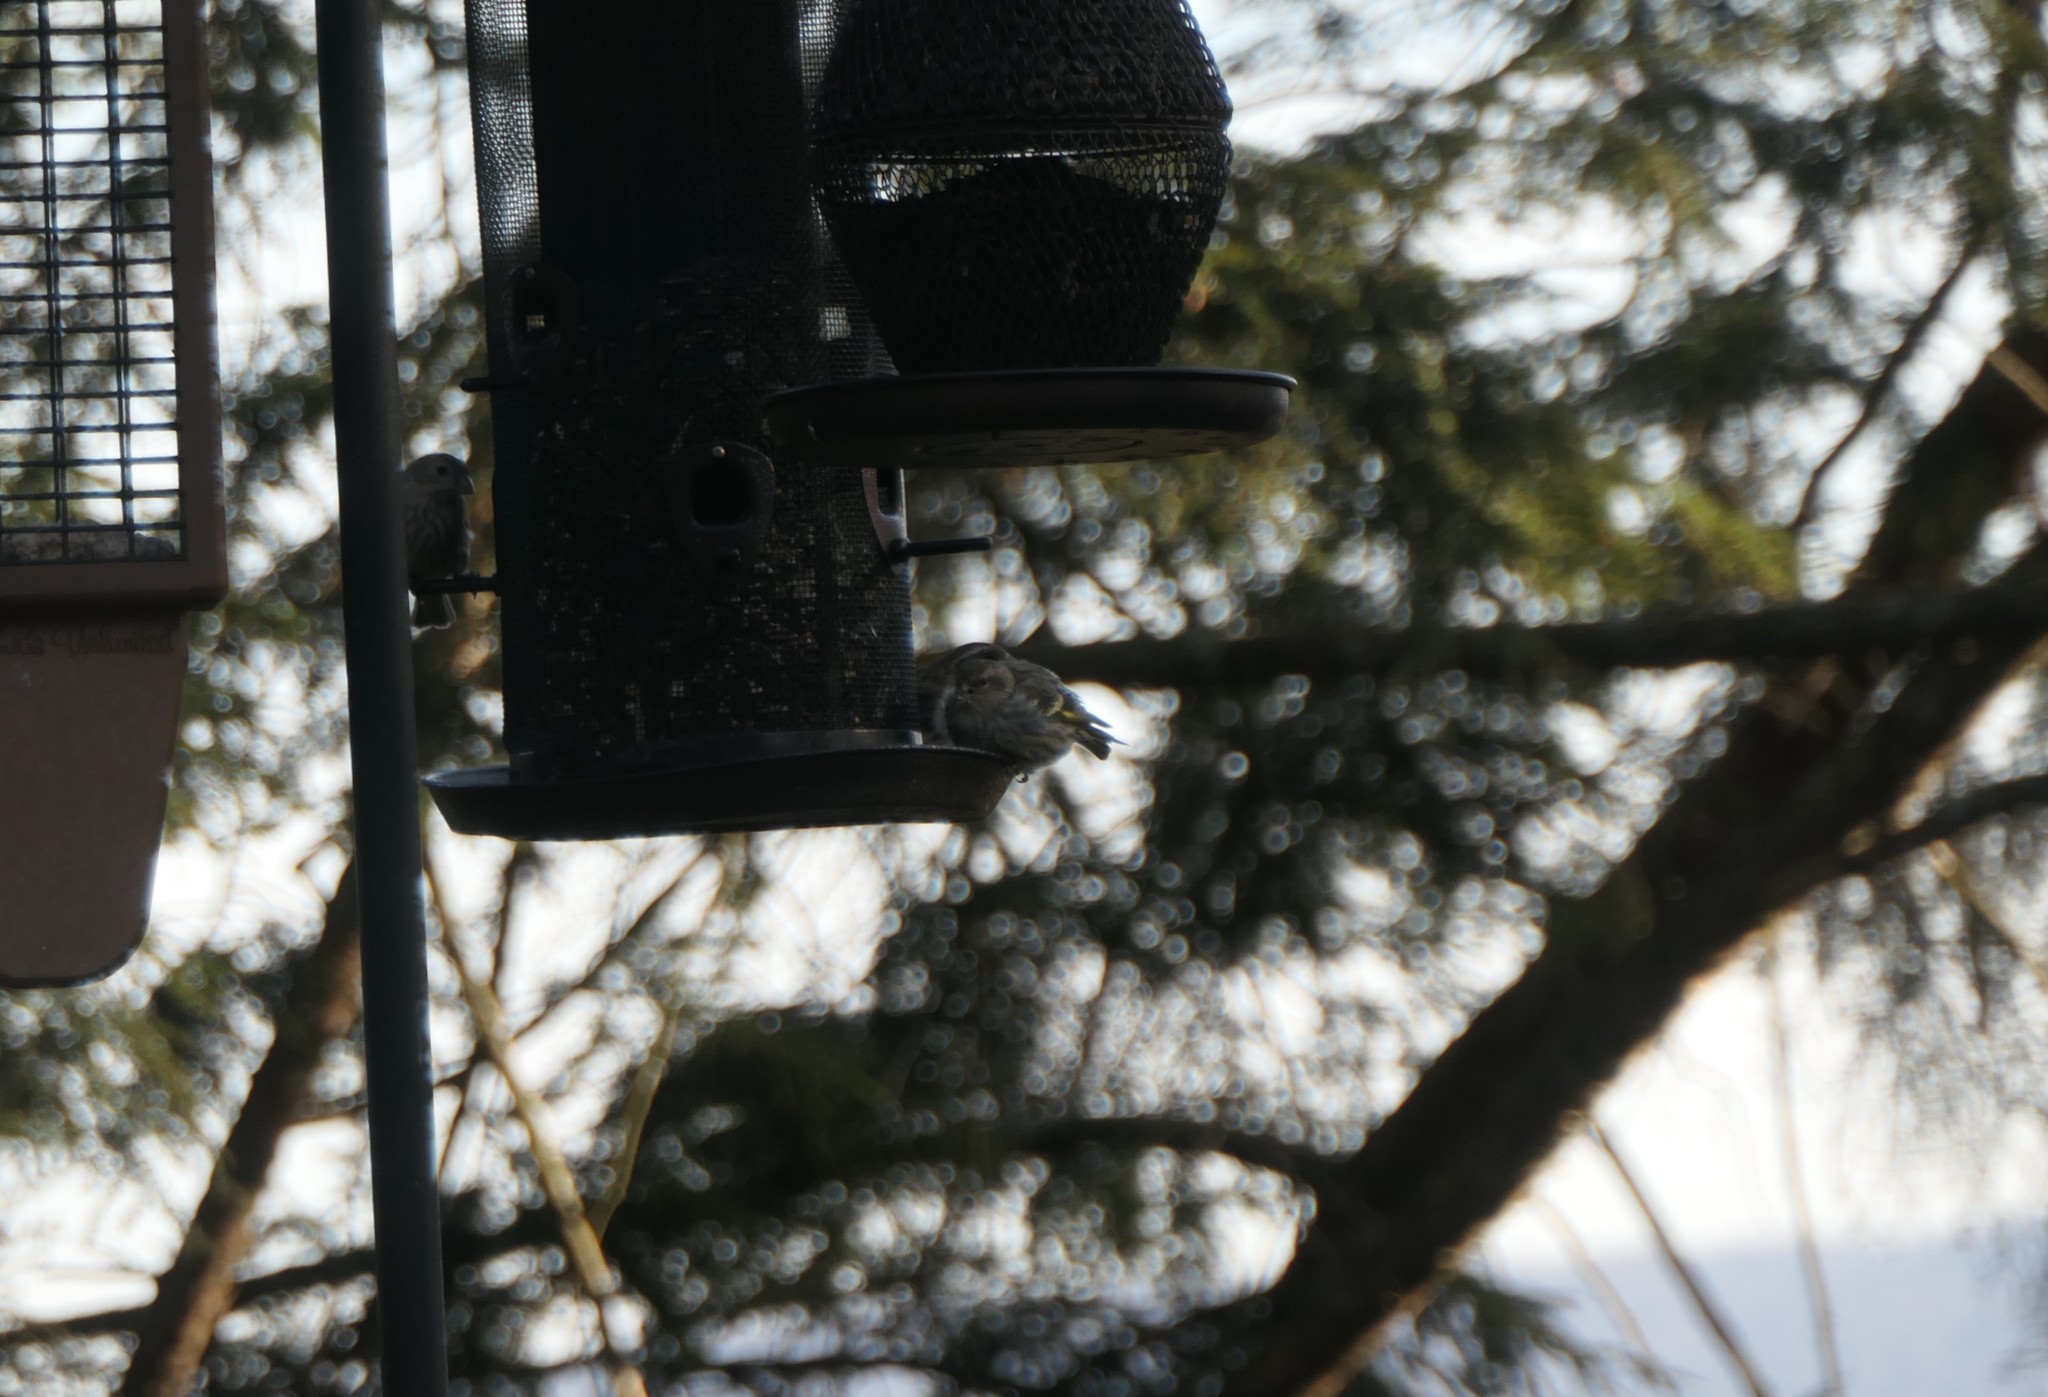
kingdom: Animalia
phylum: Chordata
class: Aves
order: Passeriformes
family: Fringillidae
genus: Spinus
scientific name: Spinus pinus
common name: Pine siskin
